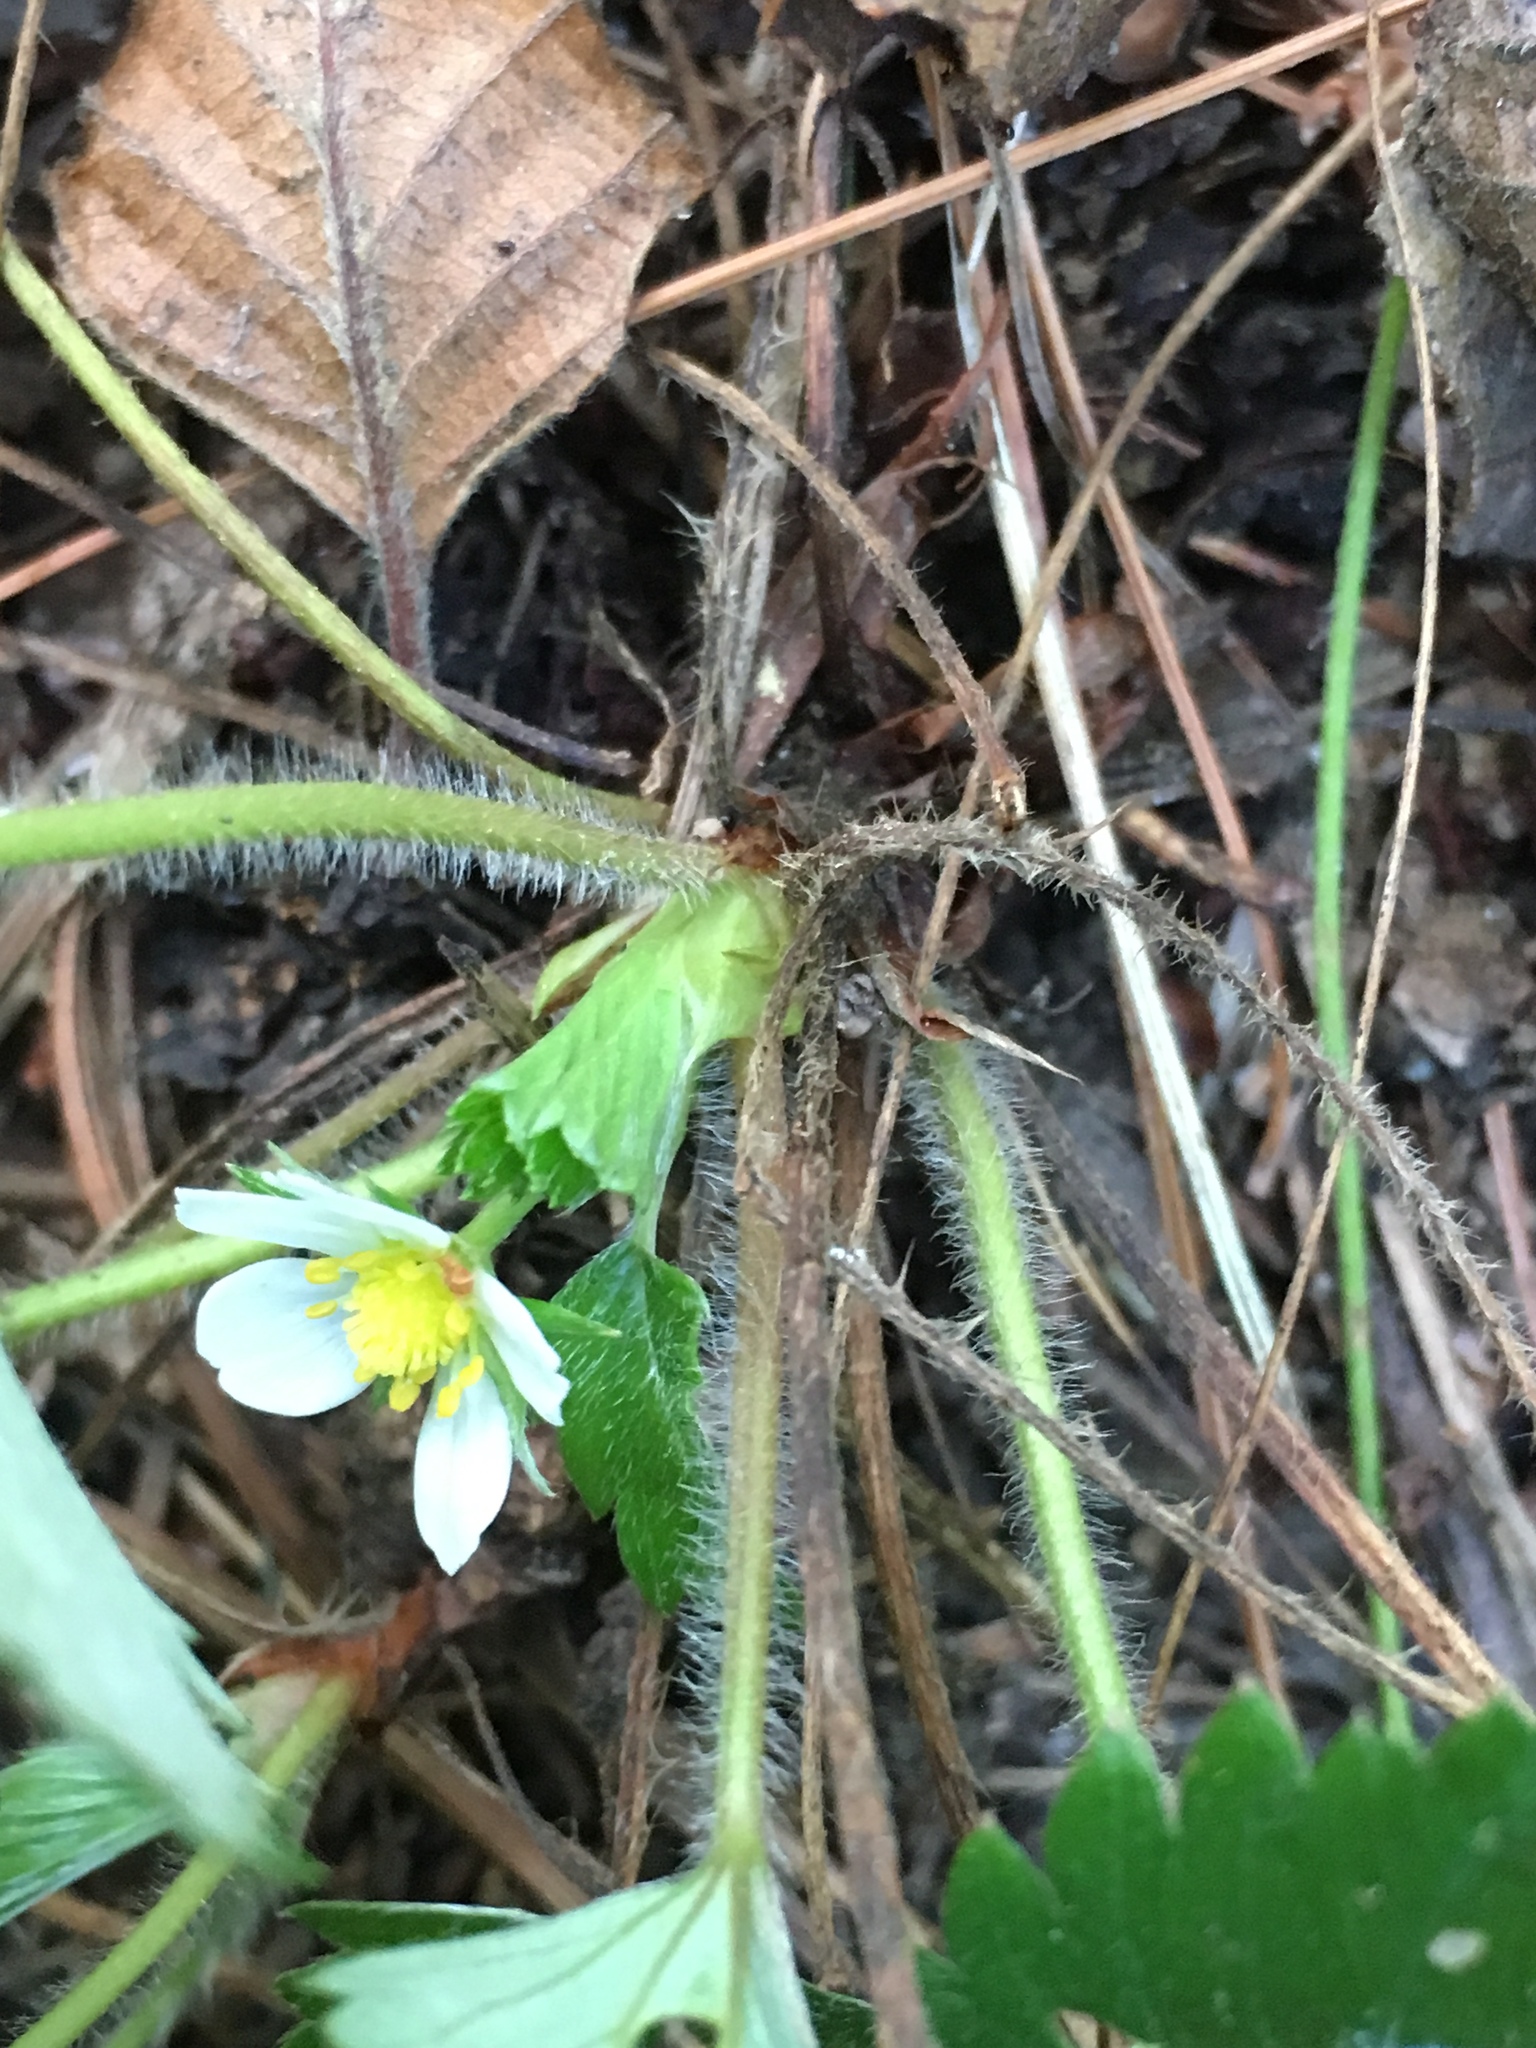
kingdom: Plantae
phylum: Tracheophyta
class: Magnoliopsida
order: Rosales
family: Rosaceae
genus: Fragaria
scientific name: Fragaria vesca
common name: Wild strawberry
